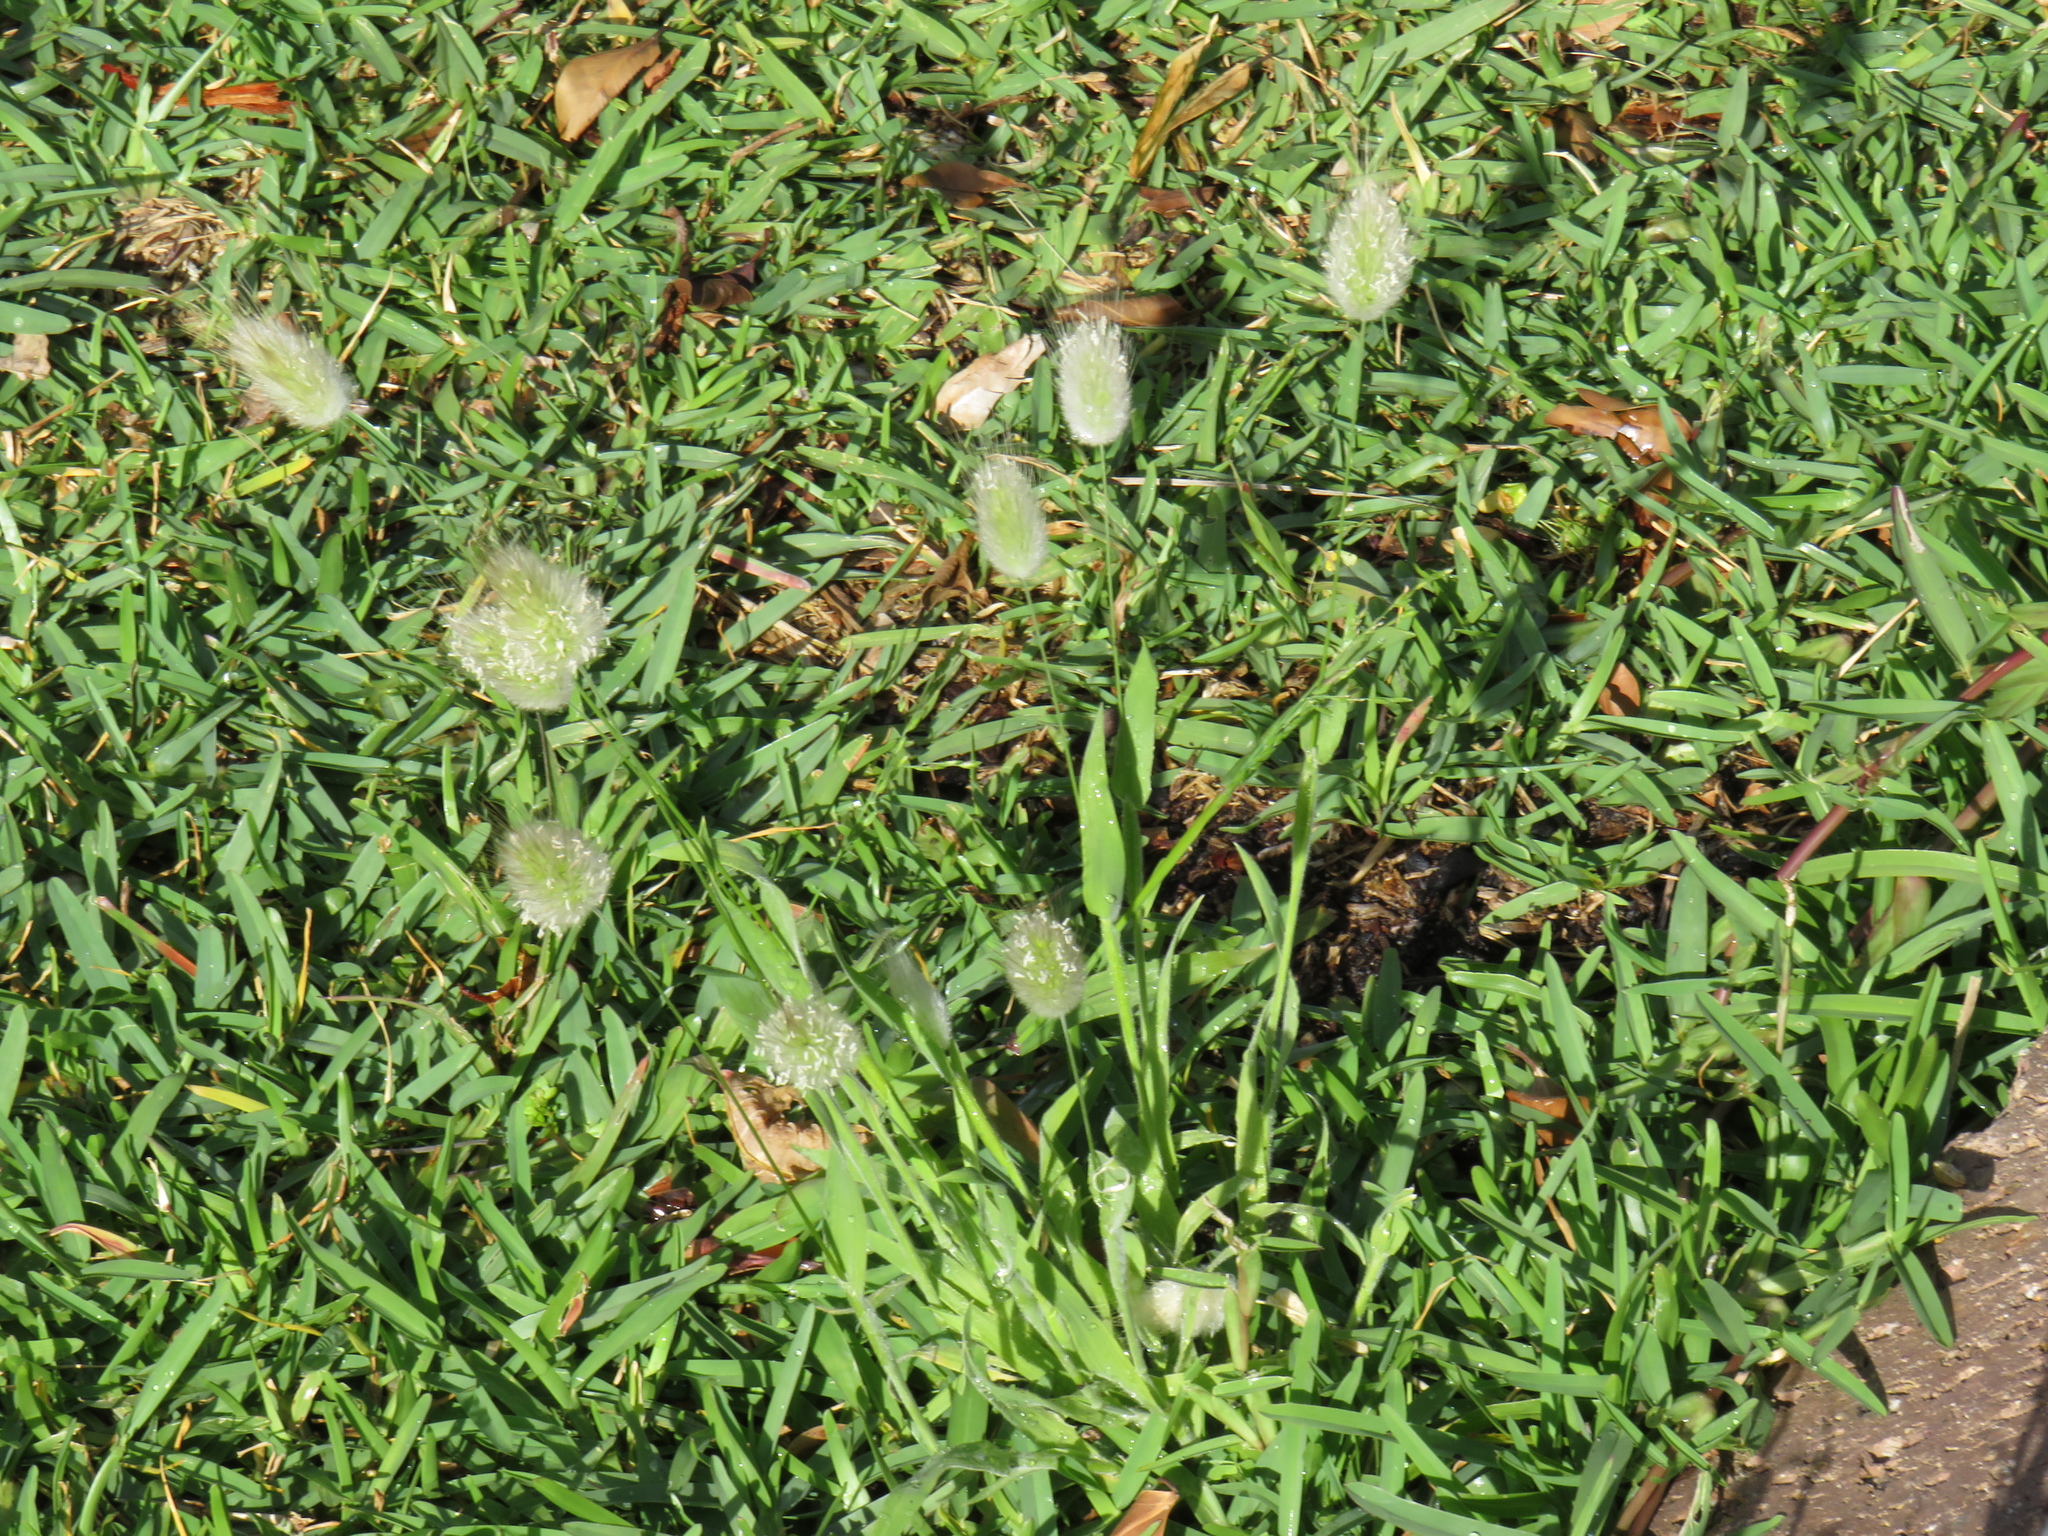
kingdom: Plantae
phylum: Tracheophyta
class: Liliopsida
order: Poales
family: Poaceae
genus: Lagurus
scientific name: Lagurus ovatus
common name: Hare's-tail
